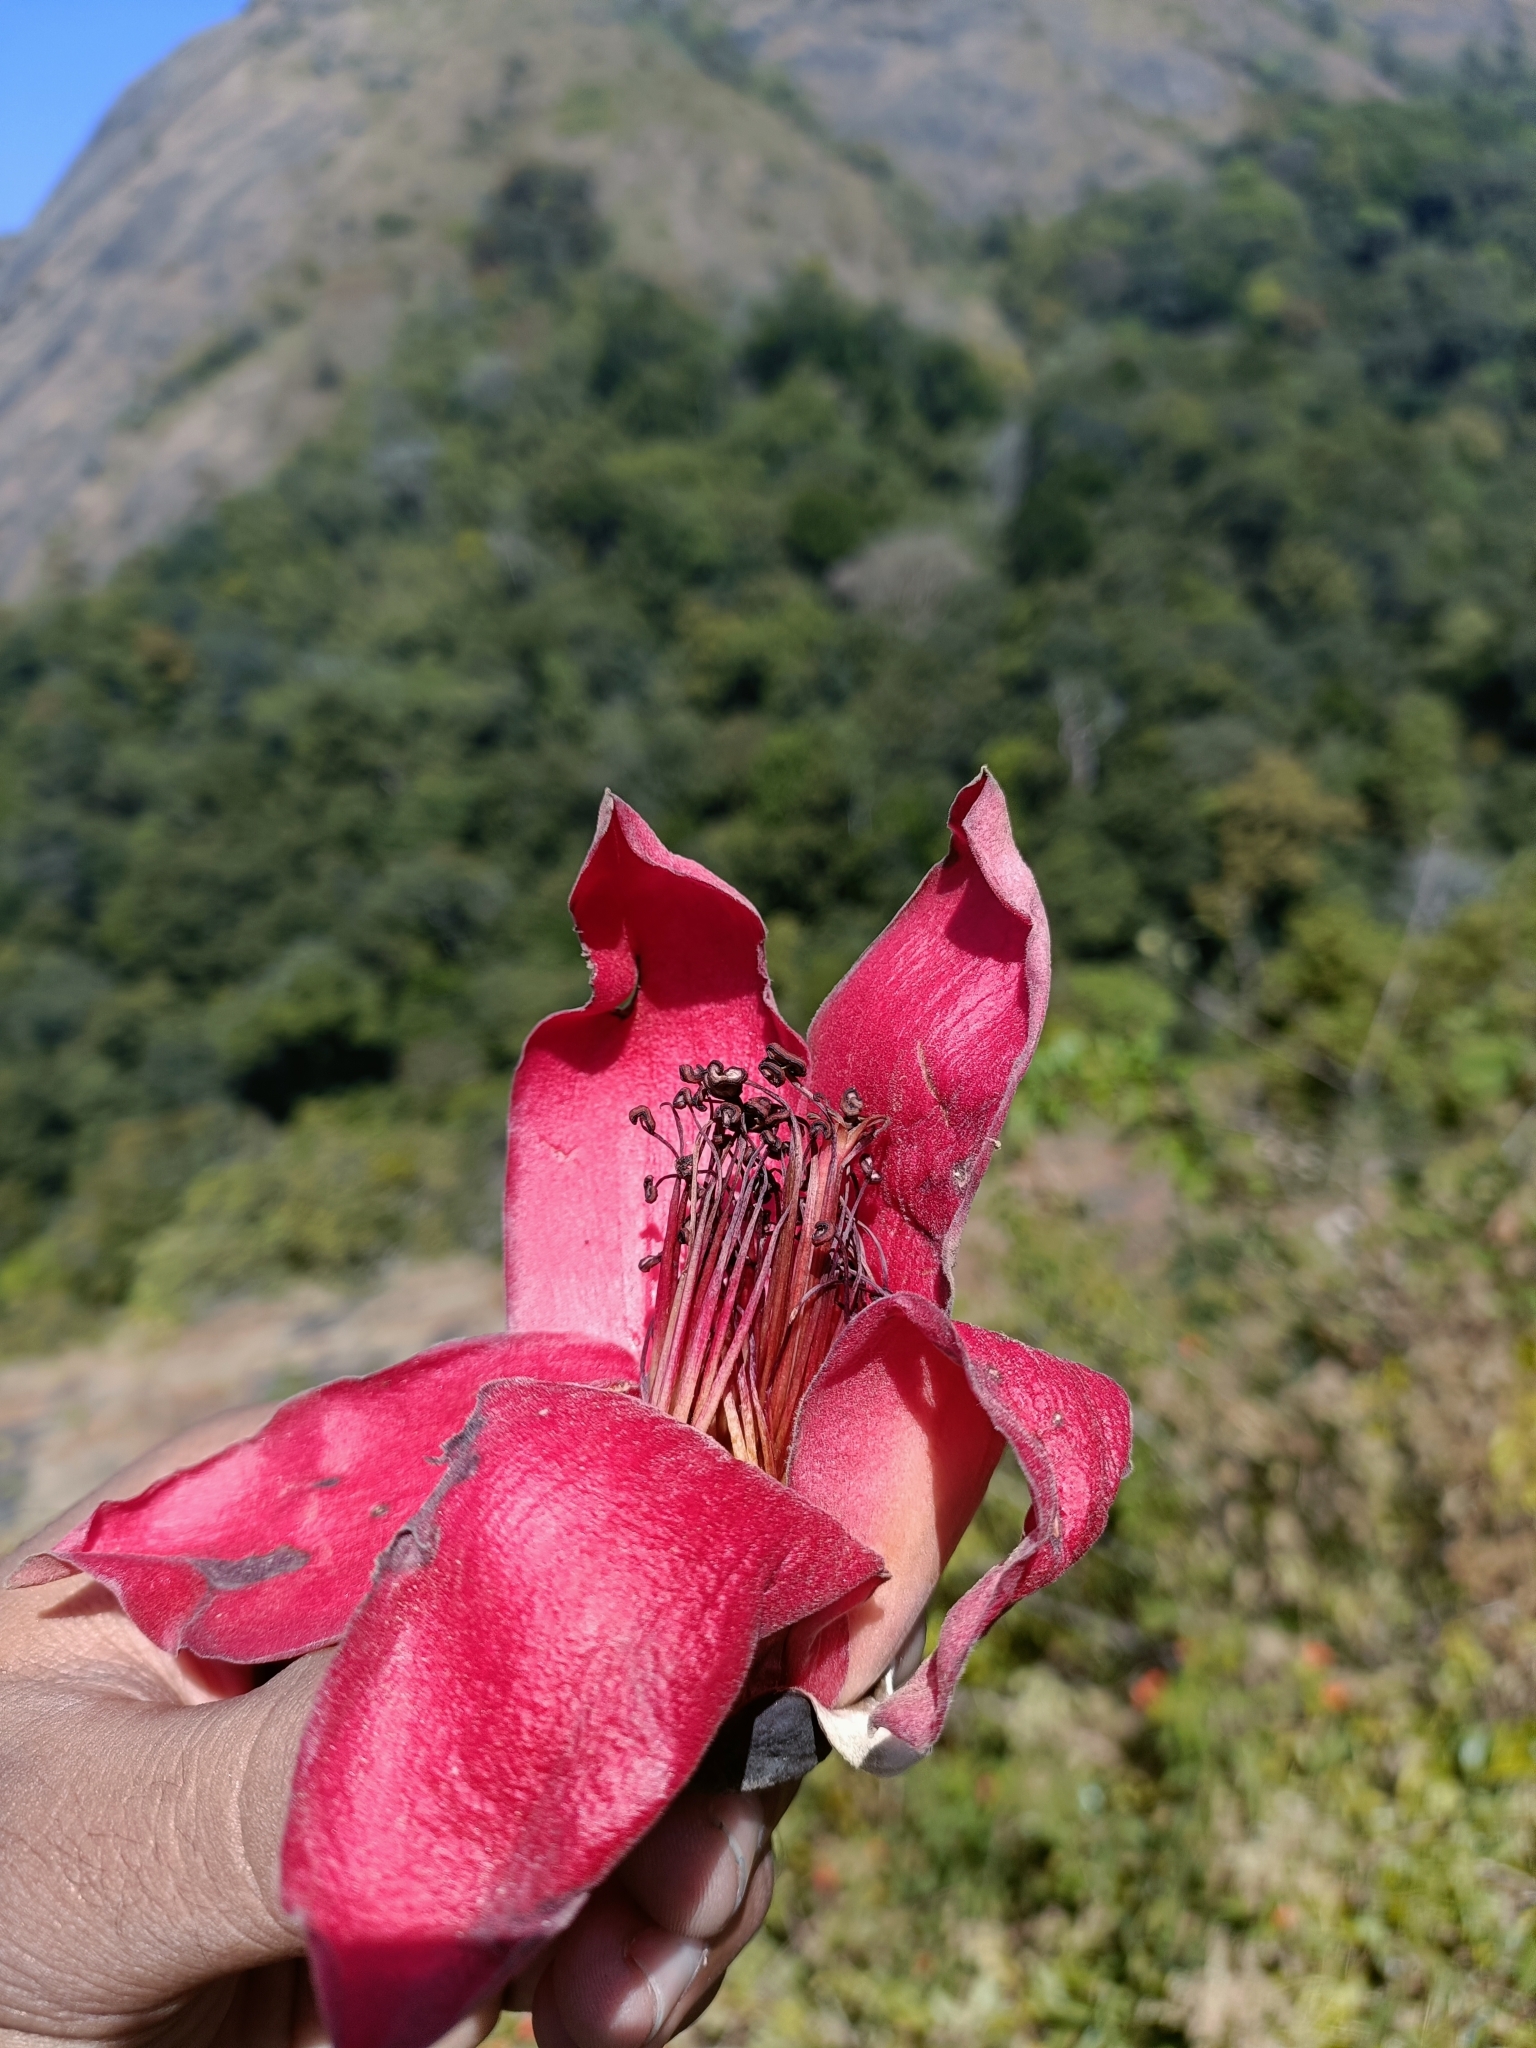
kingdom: Plantae
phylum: Tracheophyta
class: Magnoliopsida
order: Malvales
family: Malvaceae
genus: Bombax
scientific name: Bombax ceiba
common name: Northern-cottonwood
